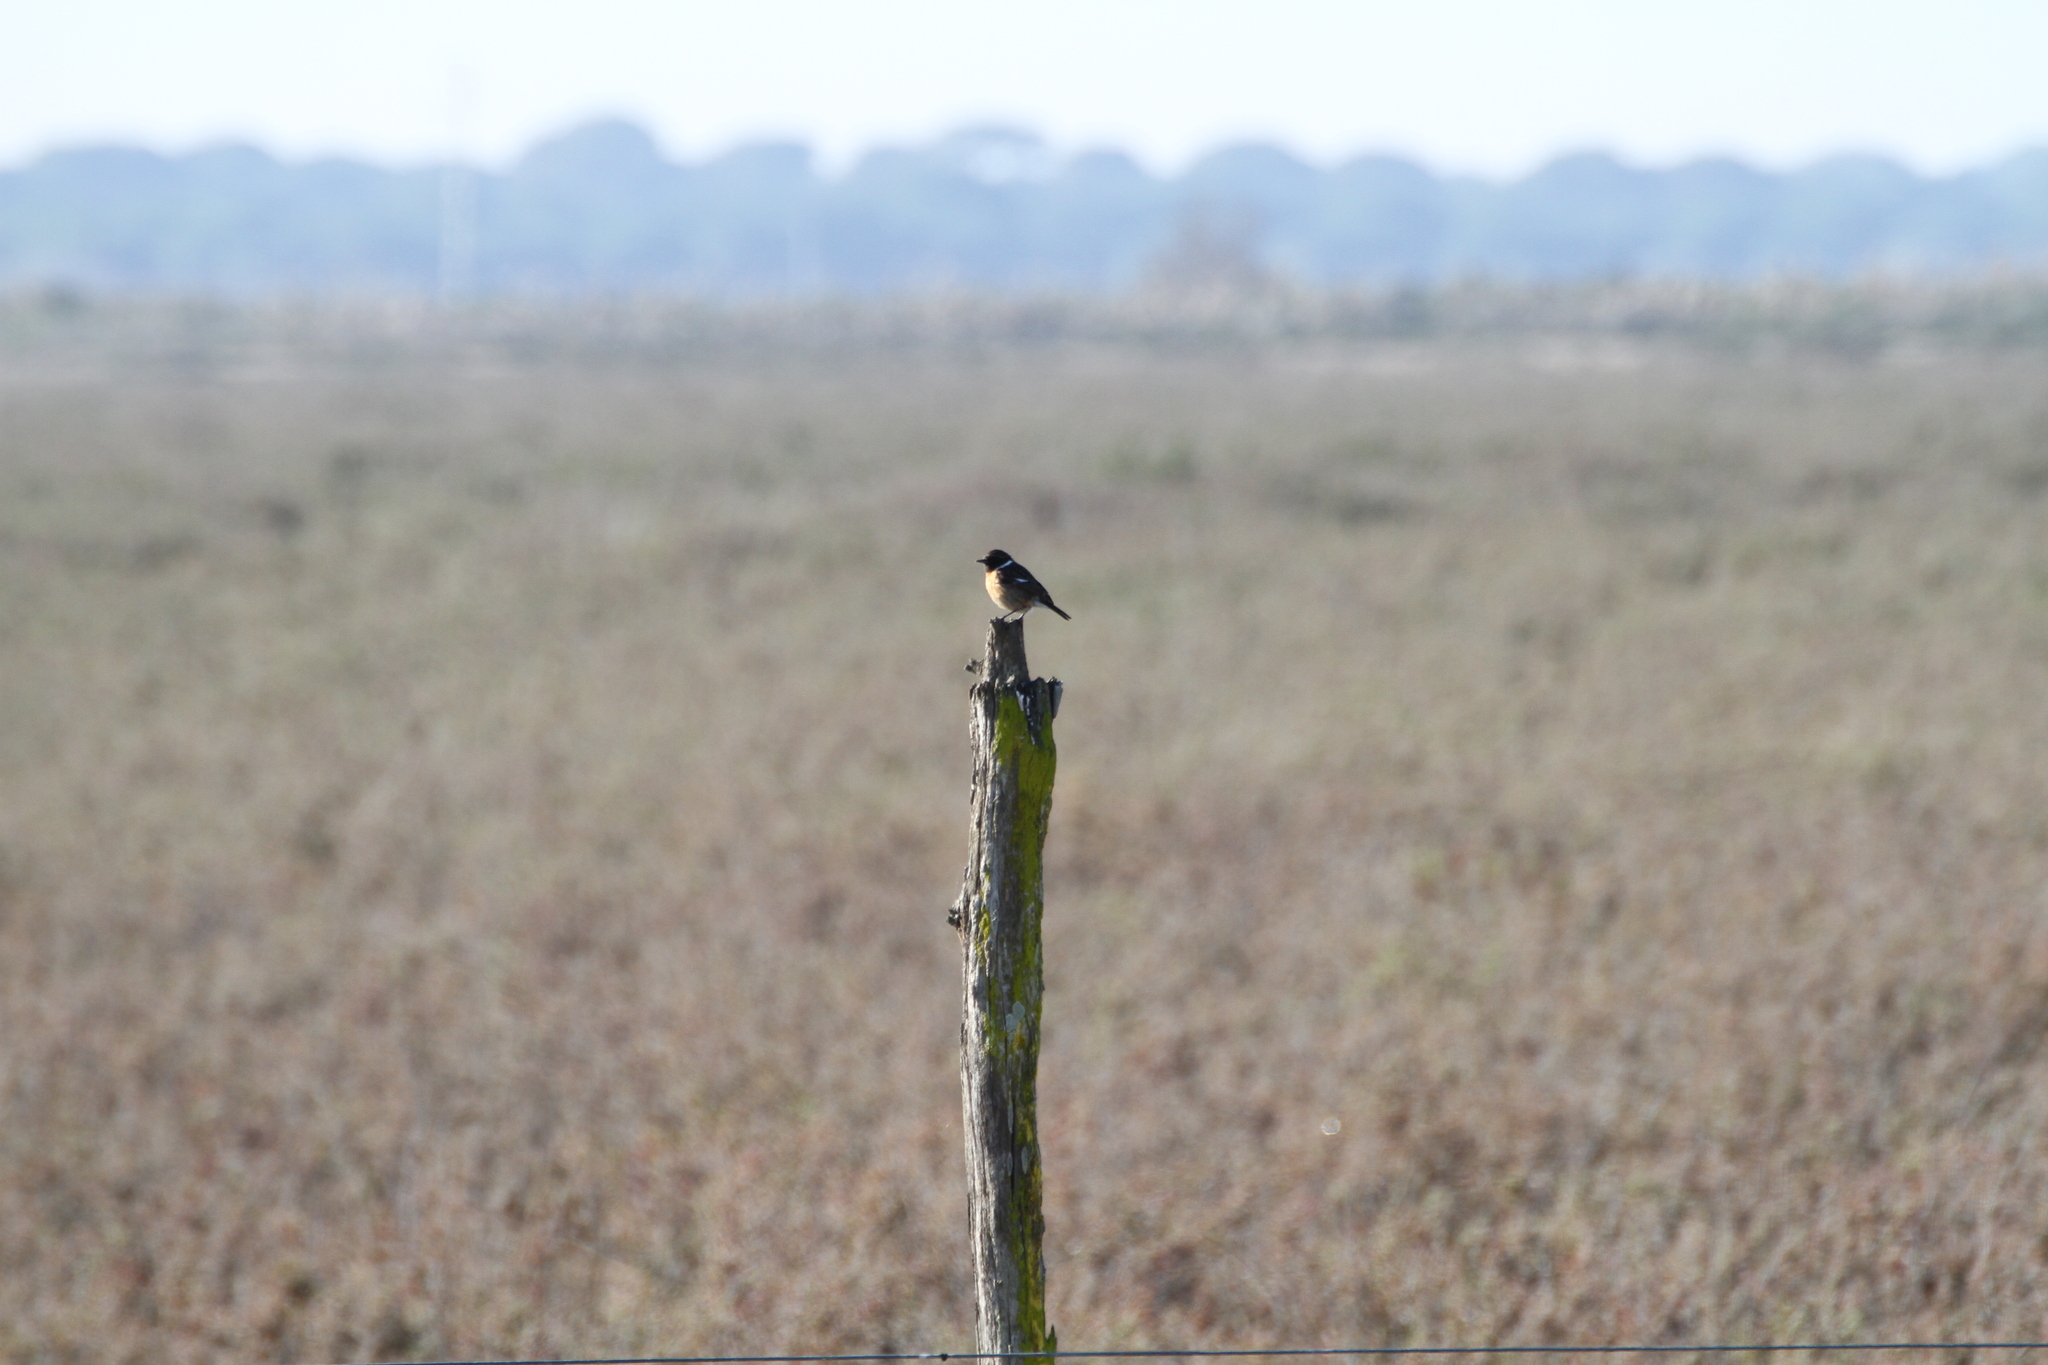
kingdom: Animalia
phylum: Chordata
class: Aves
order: Passeriformes
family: Muscicapidae
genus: Saxicola
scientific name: Saxicola rubicola
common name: European stonechat
